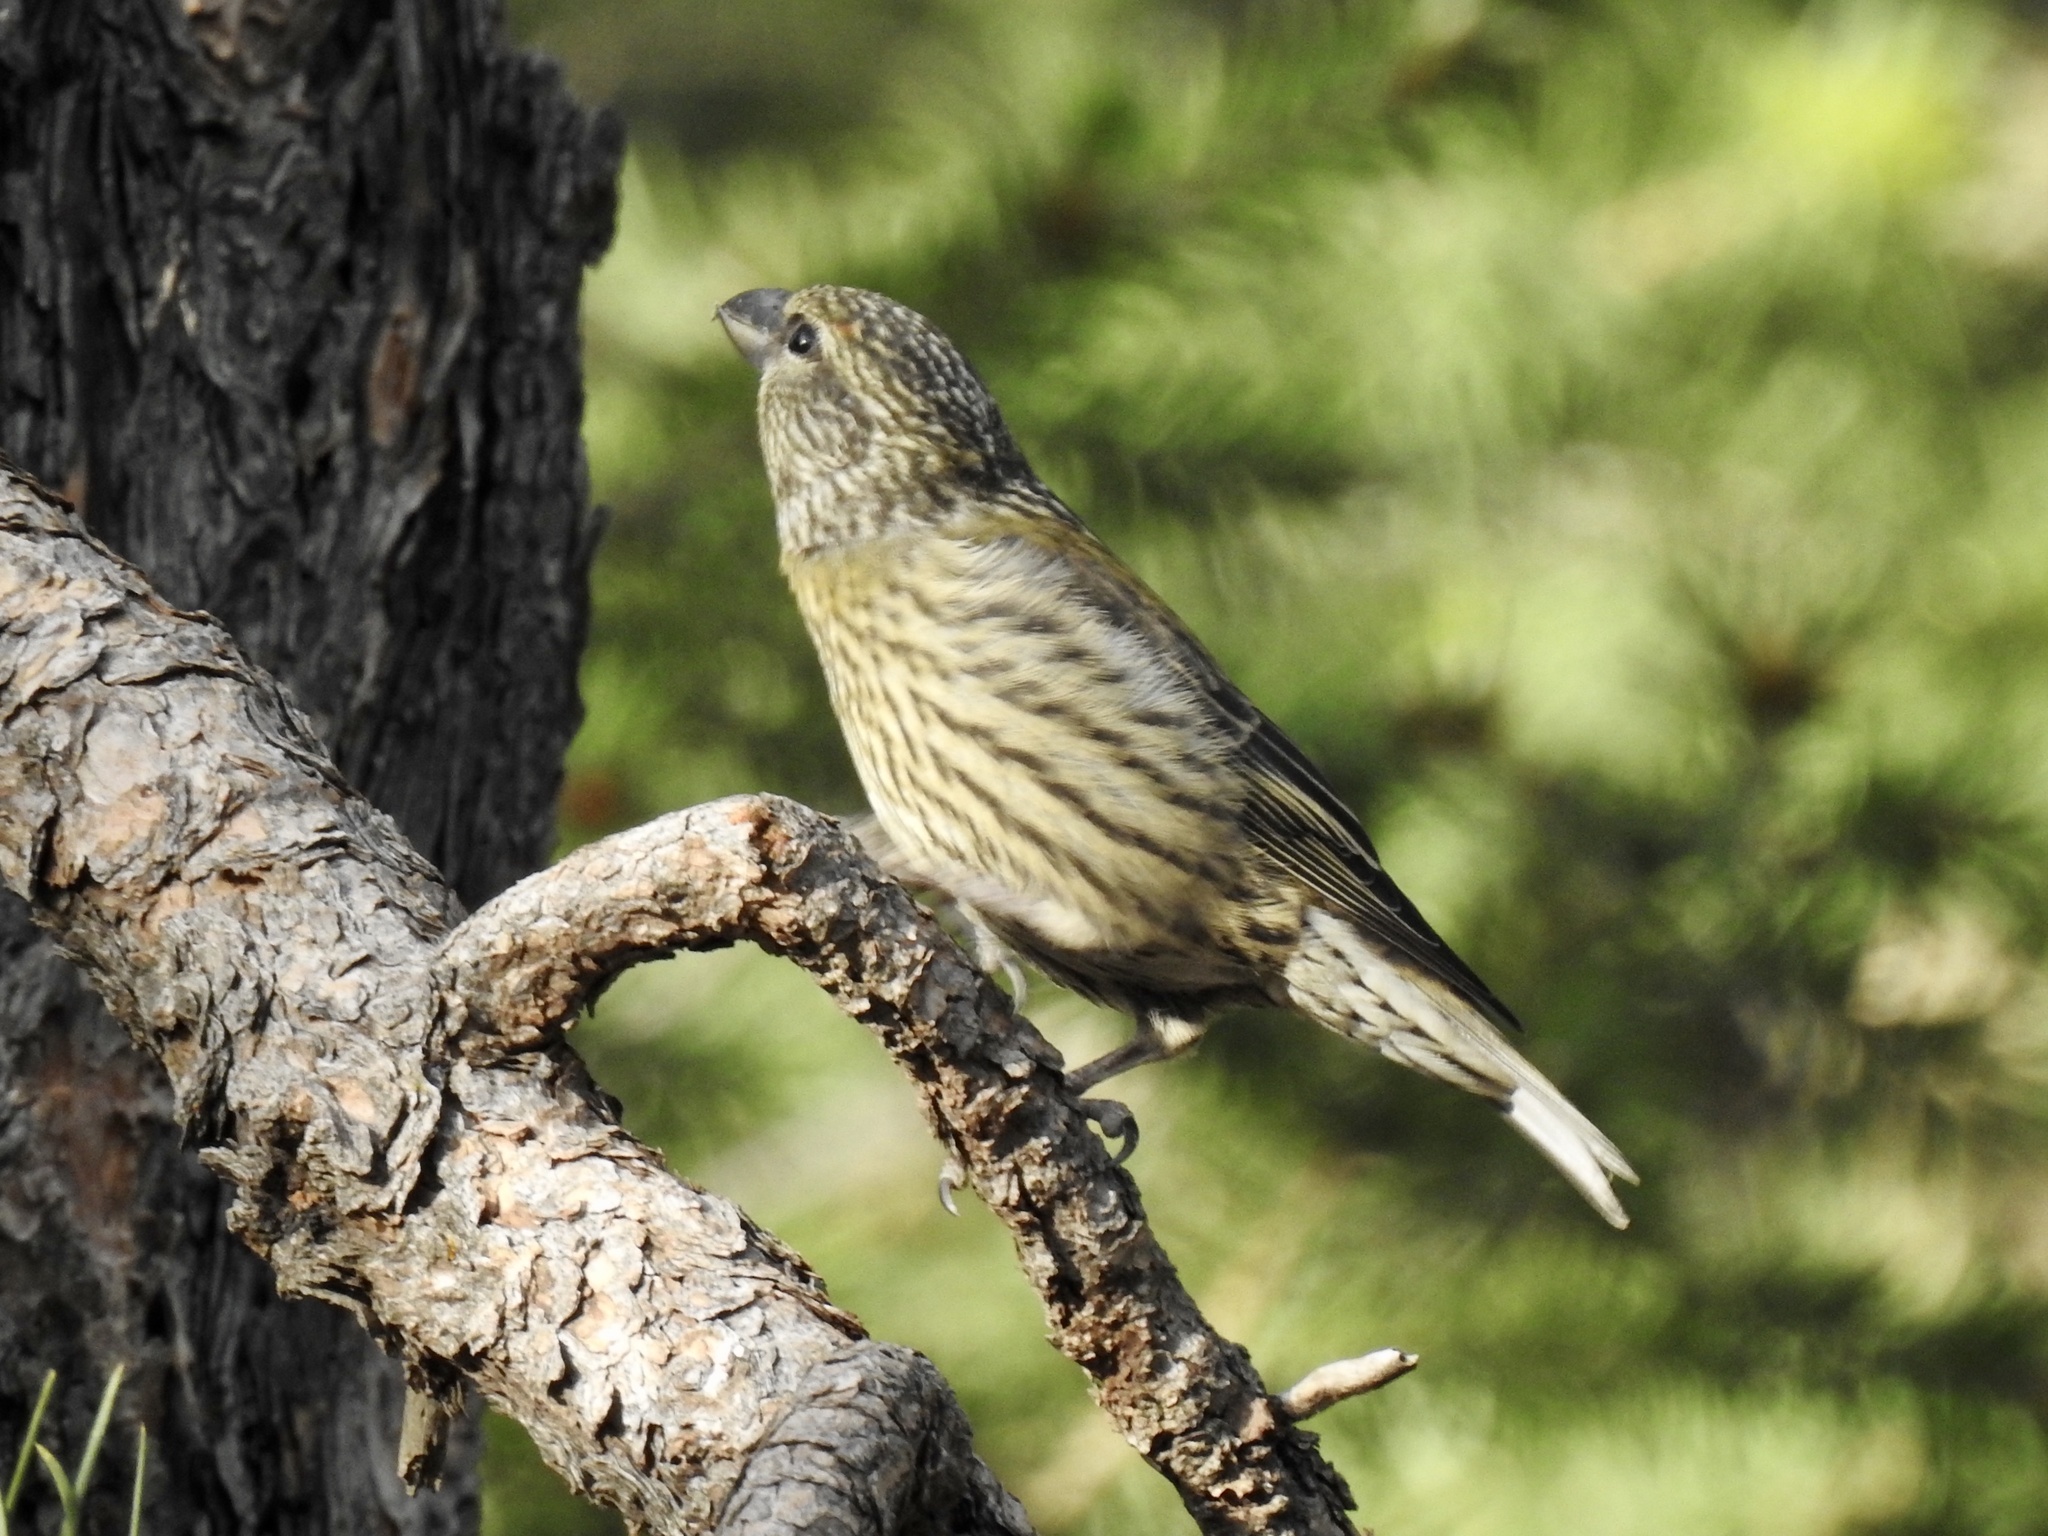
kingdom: Animalia
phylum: Chordata
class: Aves
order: Passeriformes
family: Fringillidae
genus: Loxia
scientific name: Loxia curvirostra
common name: Red crossbill
